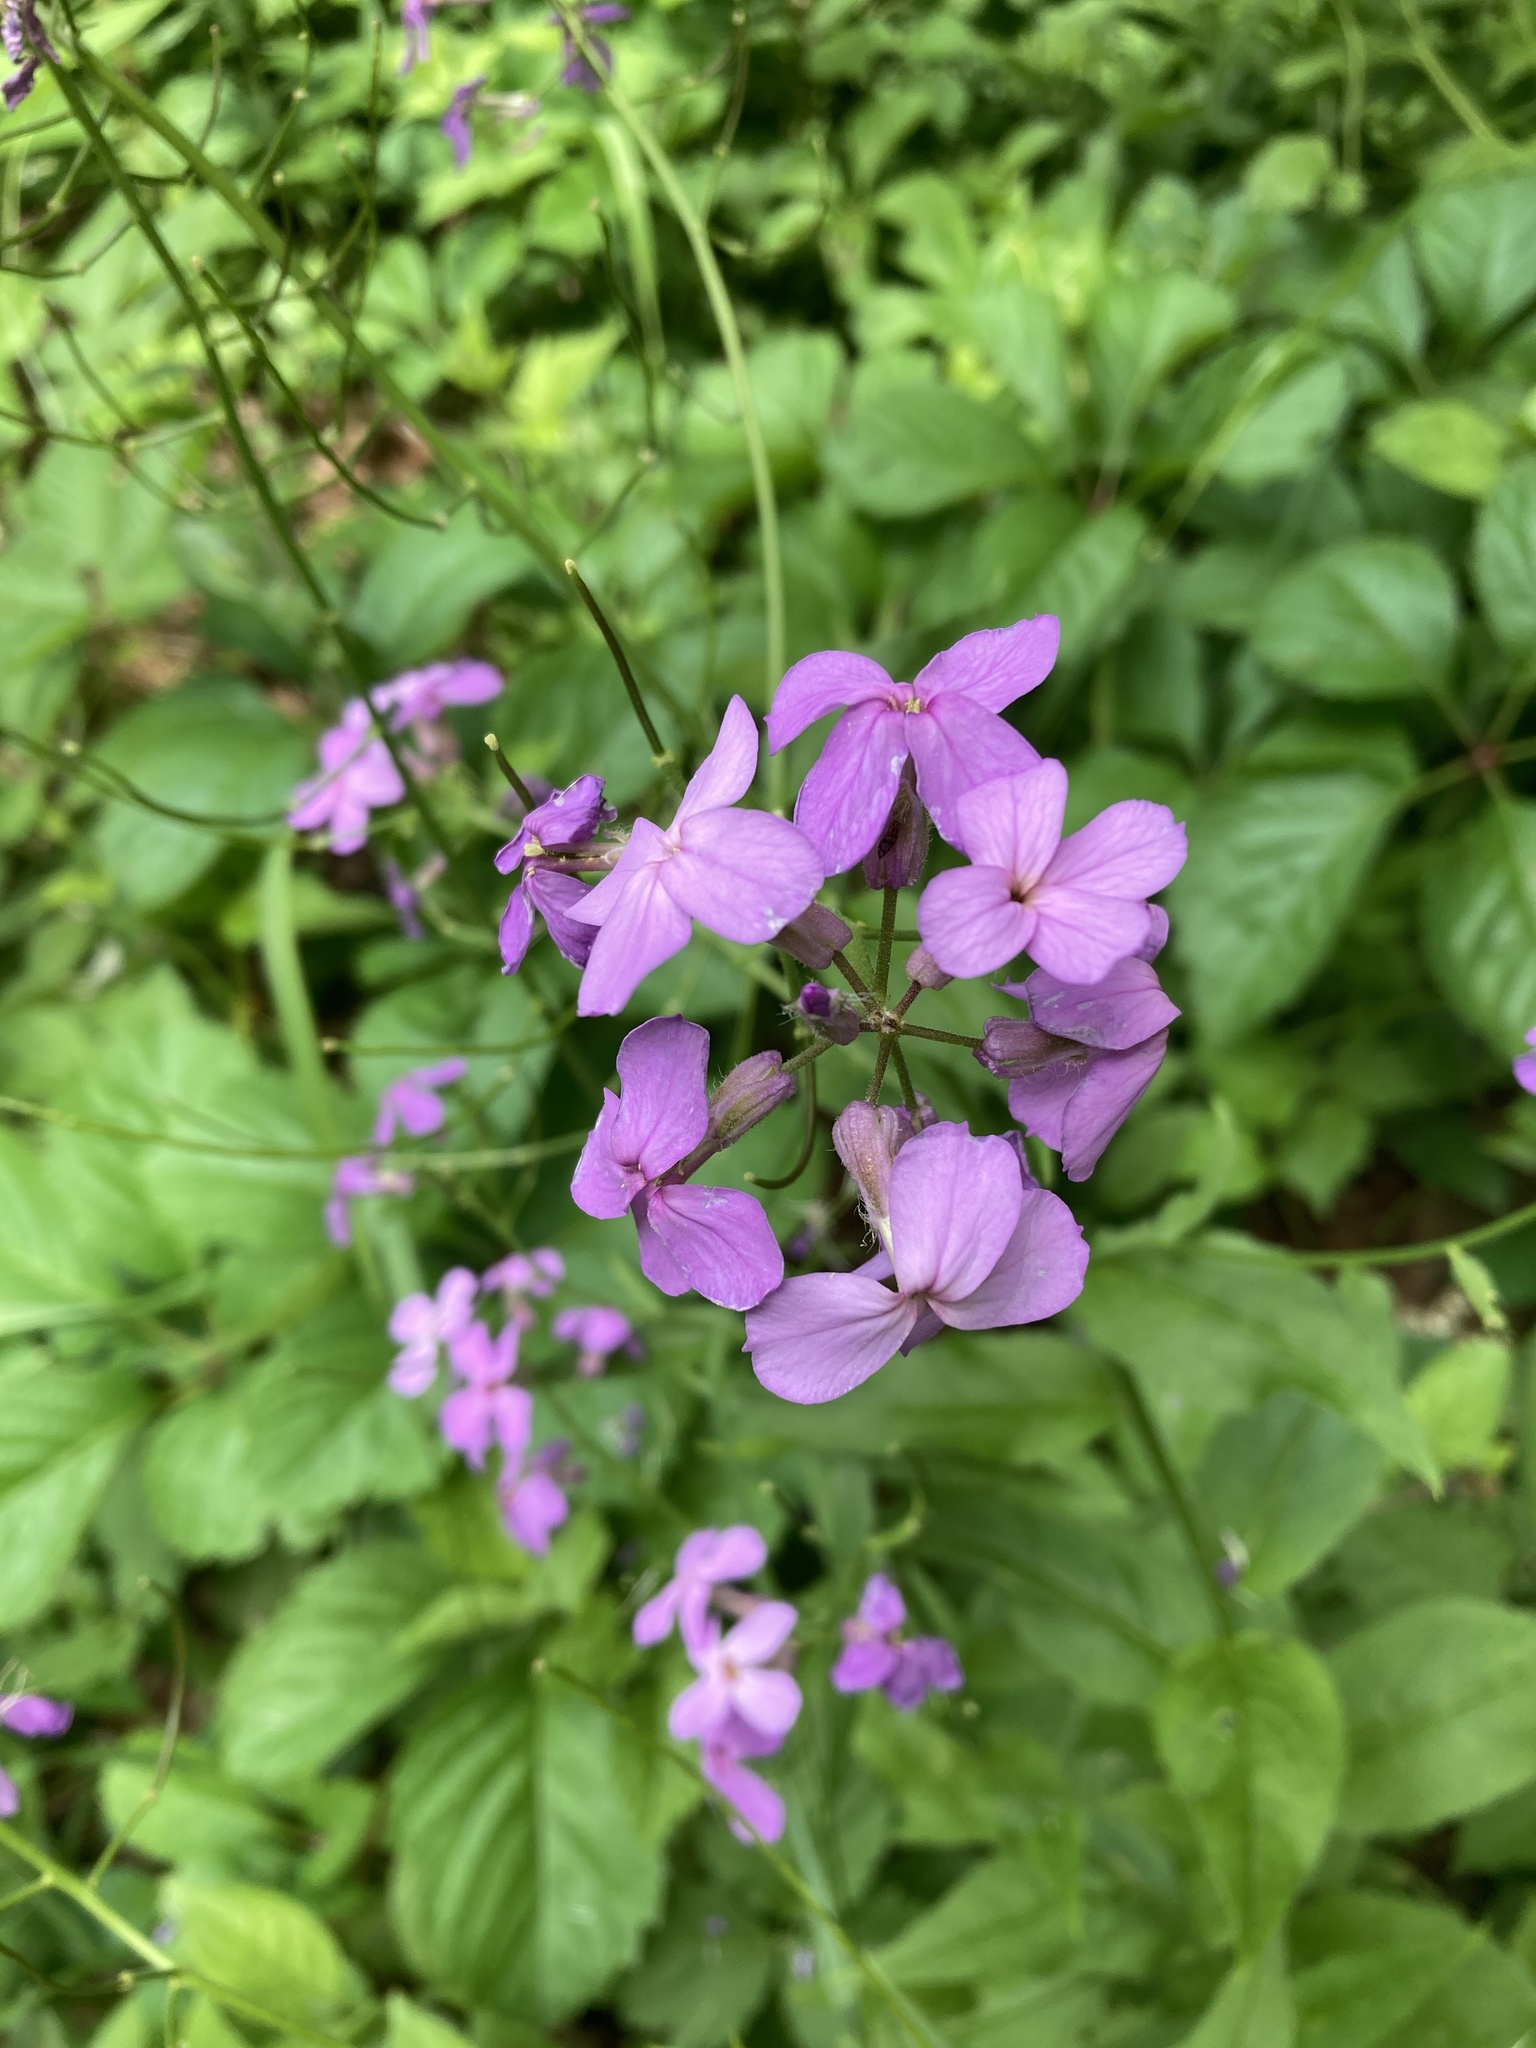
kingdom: Plantae
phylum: Tracheophyta
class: Magnoliopsida
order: Brassicales
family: Brassicaceae
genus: Hesperis
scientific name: Hesperis matronalis
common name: Dame's-violet
